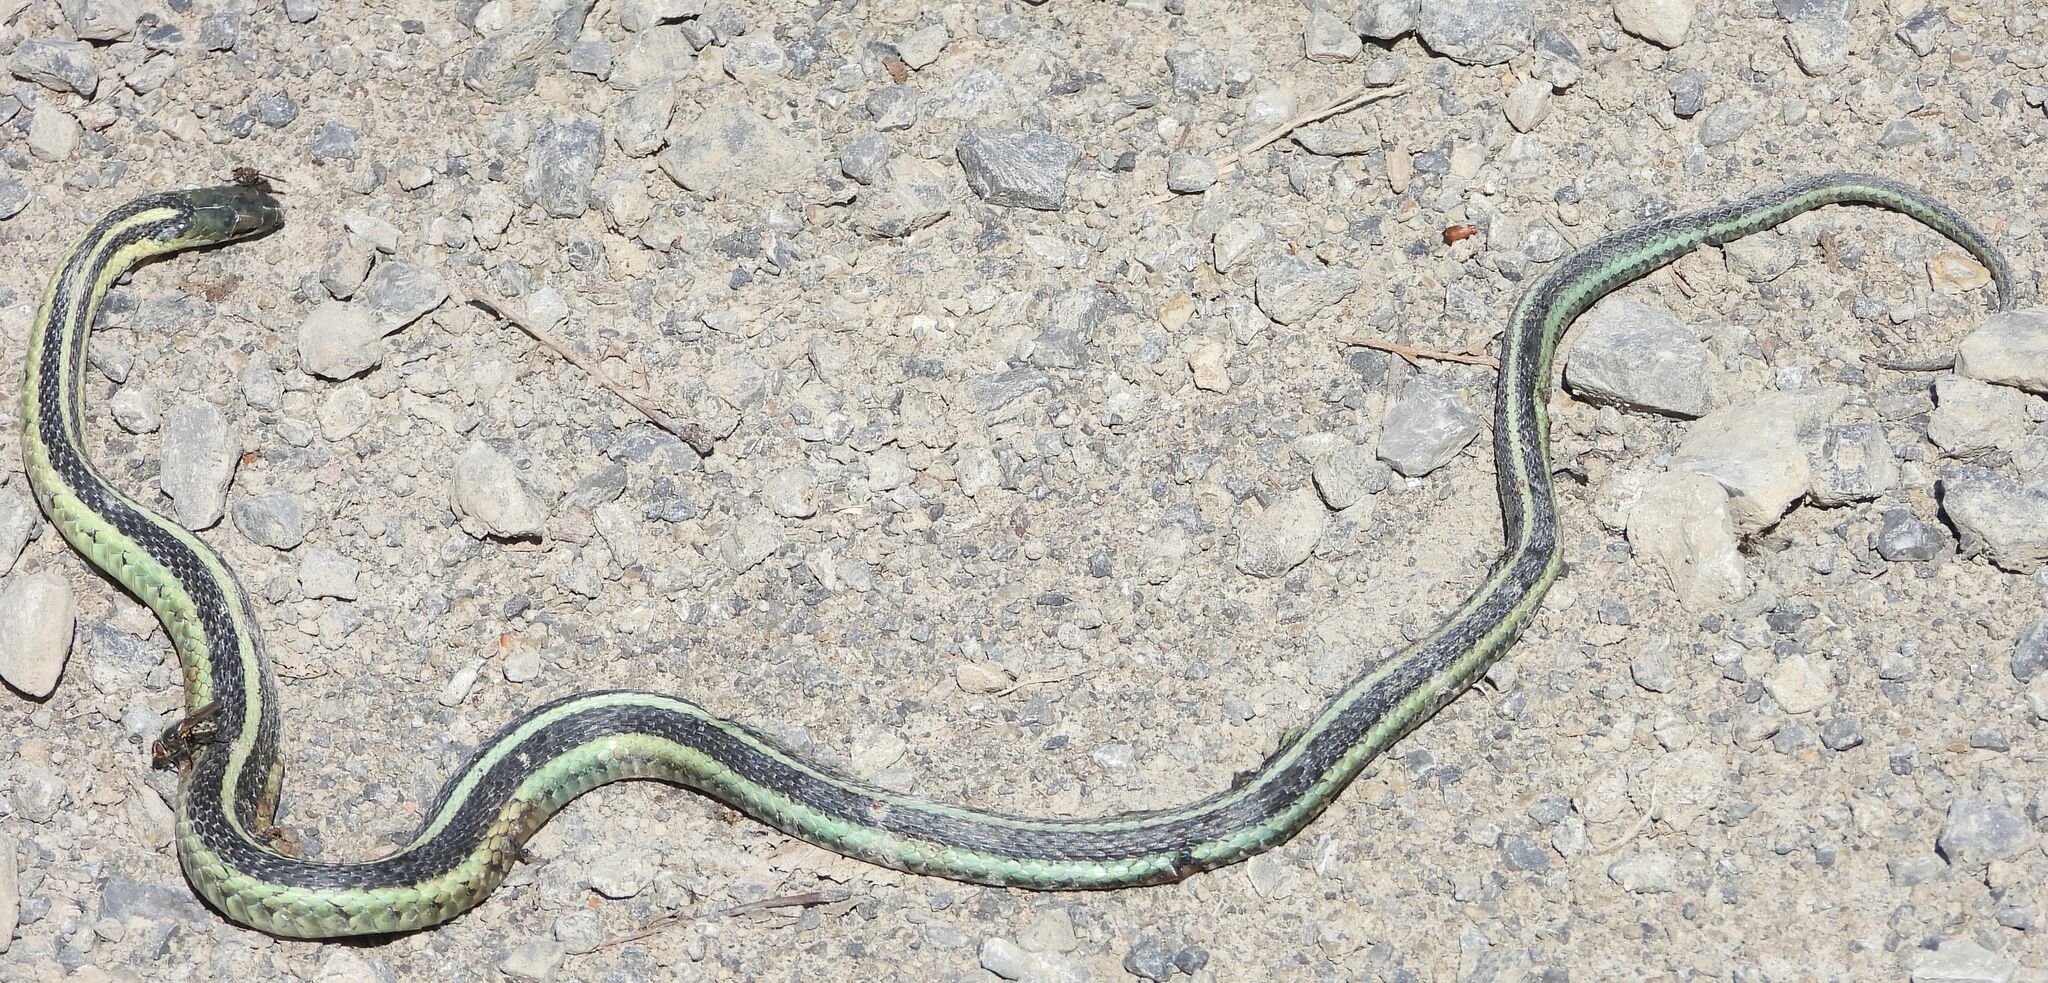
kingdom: Animalia
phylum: Chordata
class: Squamata
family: Colubridae
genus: Thamnophis
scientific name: Thamnophis sirtalis
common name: Common garter snake
